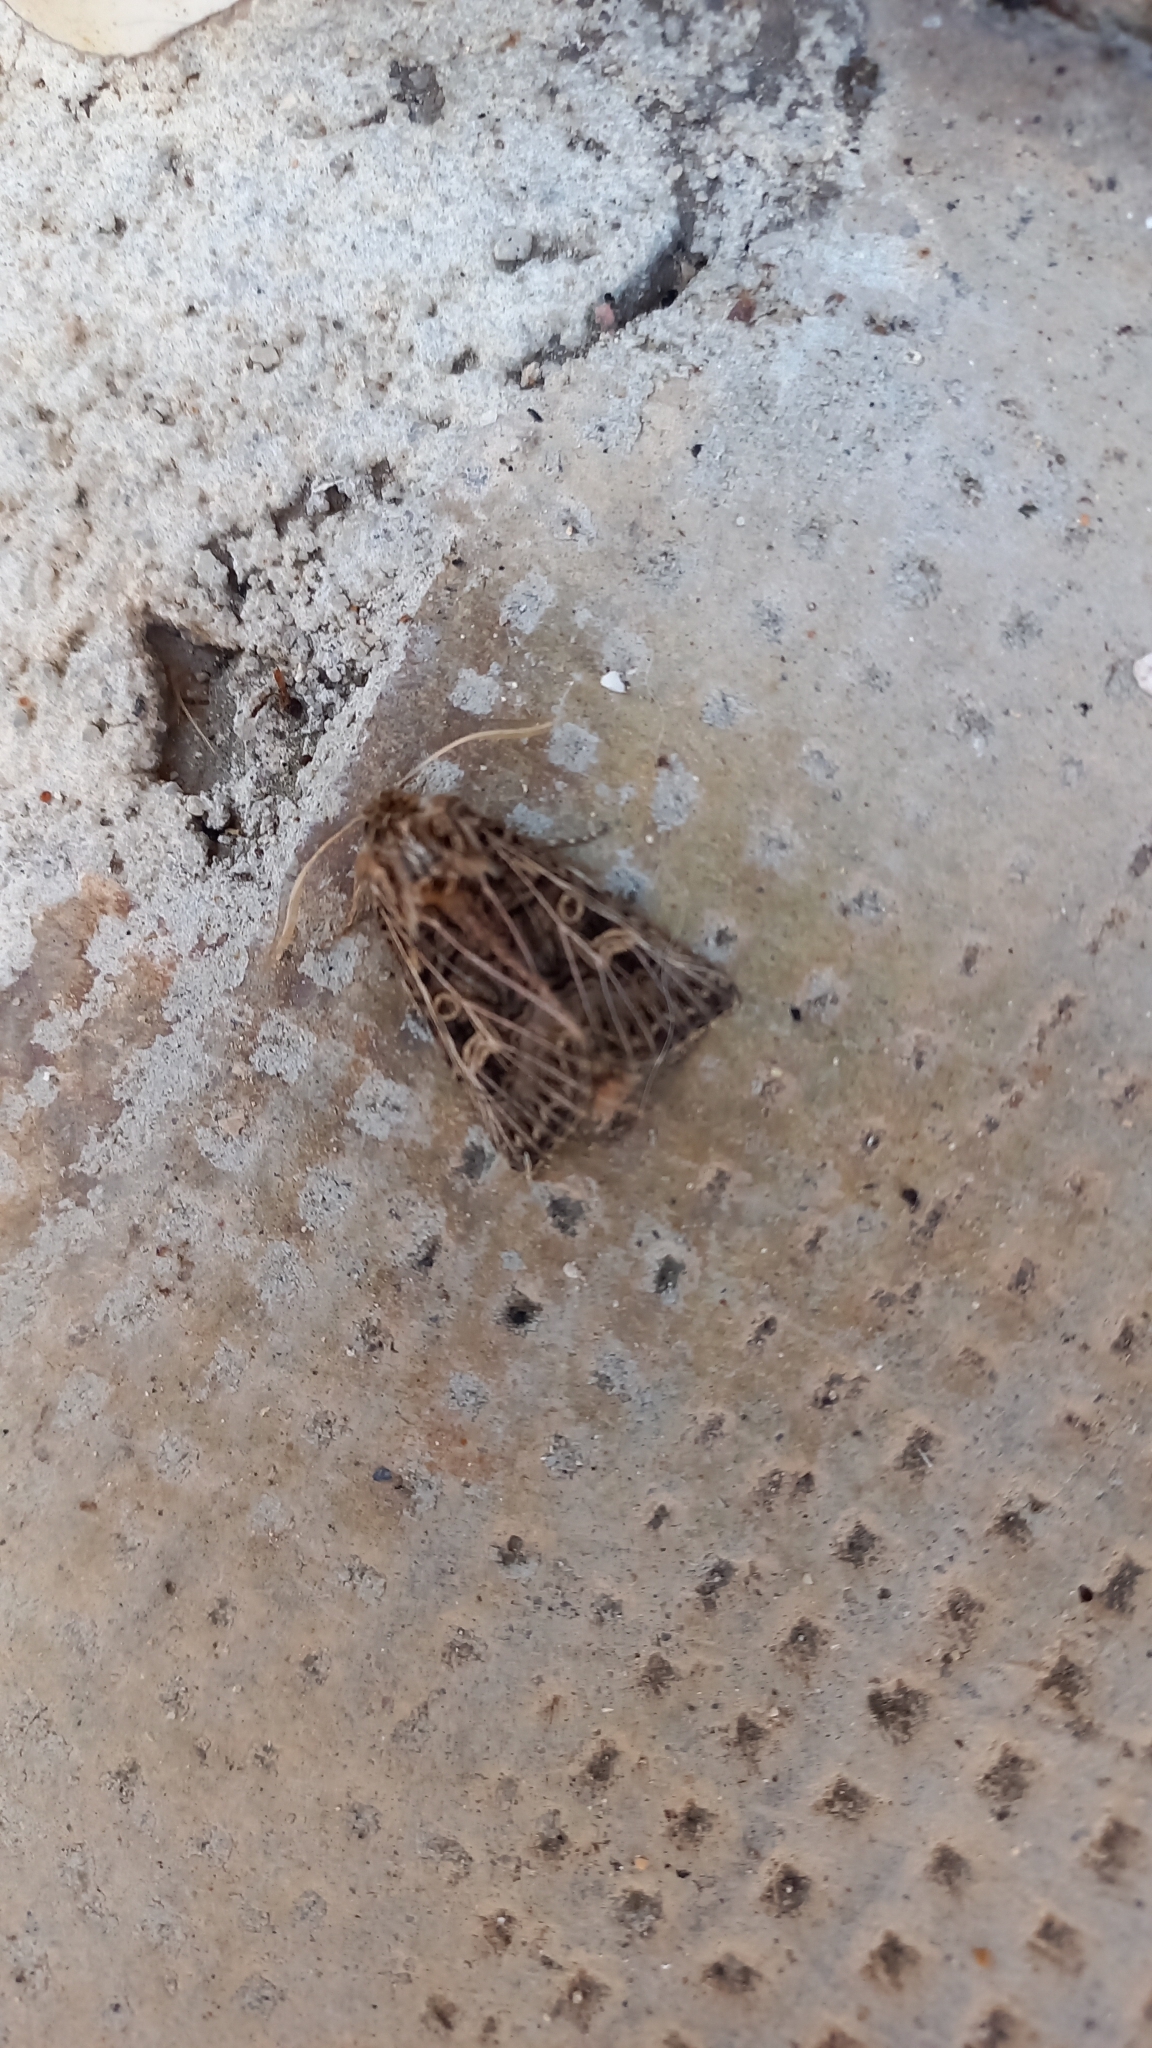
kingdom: Animalia
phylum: Arthropoda
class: Insecta
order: Lepidoptera
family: Noctuidae
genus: Tholera
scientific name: Tholera decimalis
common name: Feathered gothic
